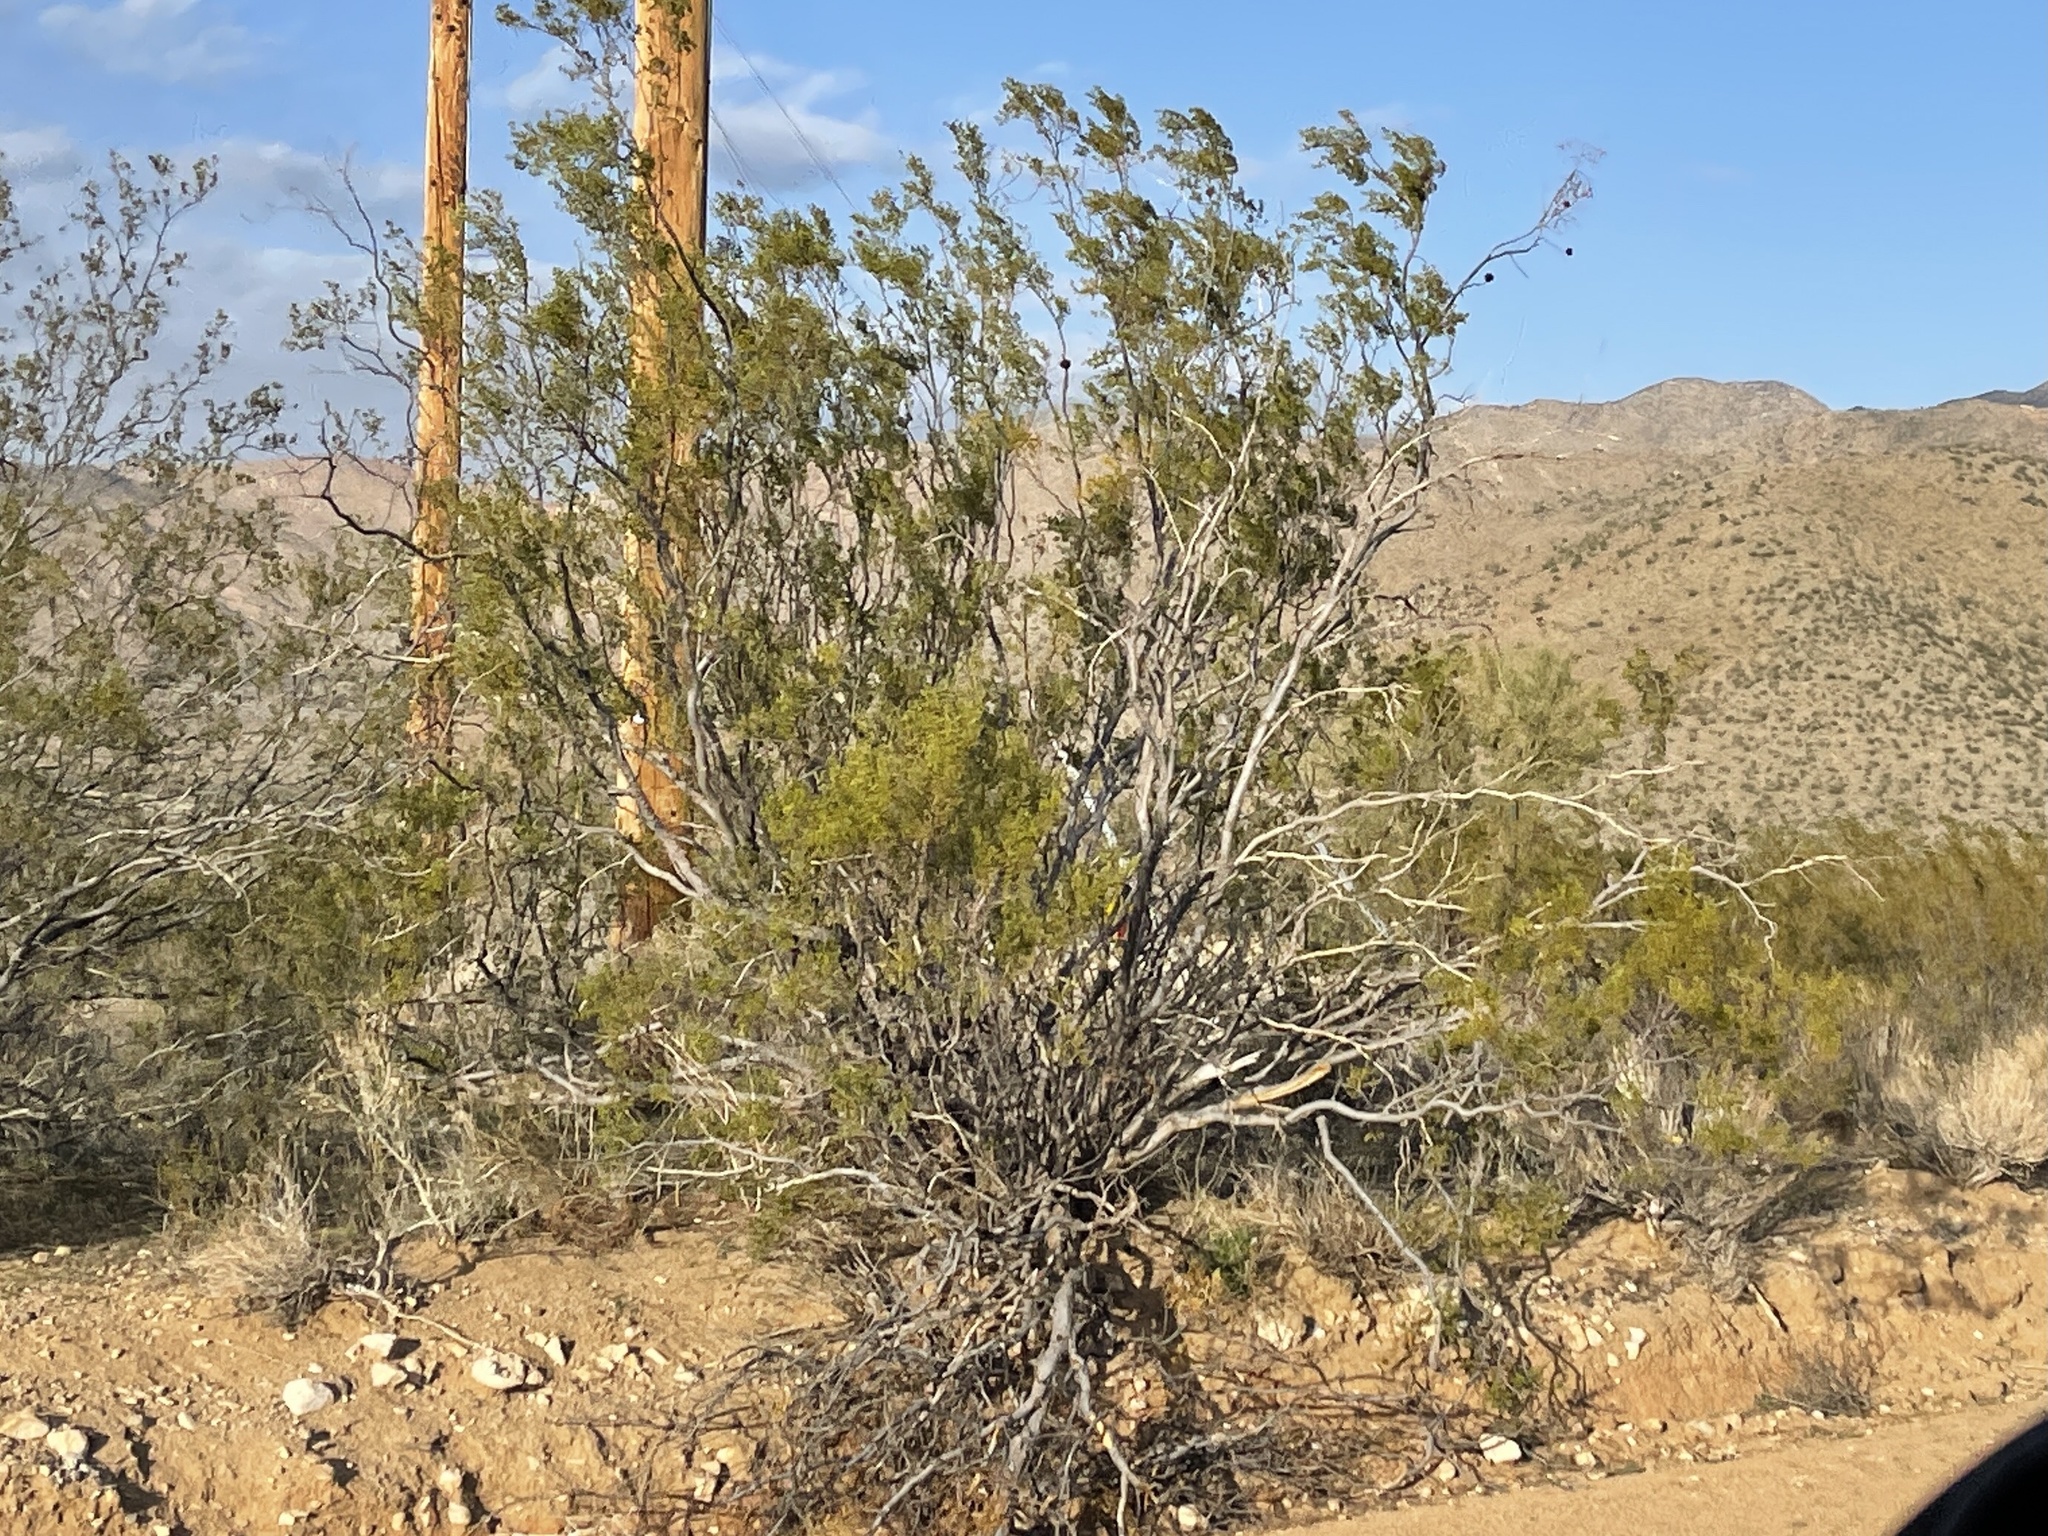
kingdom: Plantae
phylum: Tracheophyta
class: Magnoliopsida
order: Zygophyllales
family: Zygophyllaceae
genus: Larrea
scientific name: Larrea tridentata
